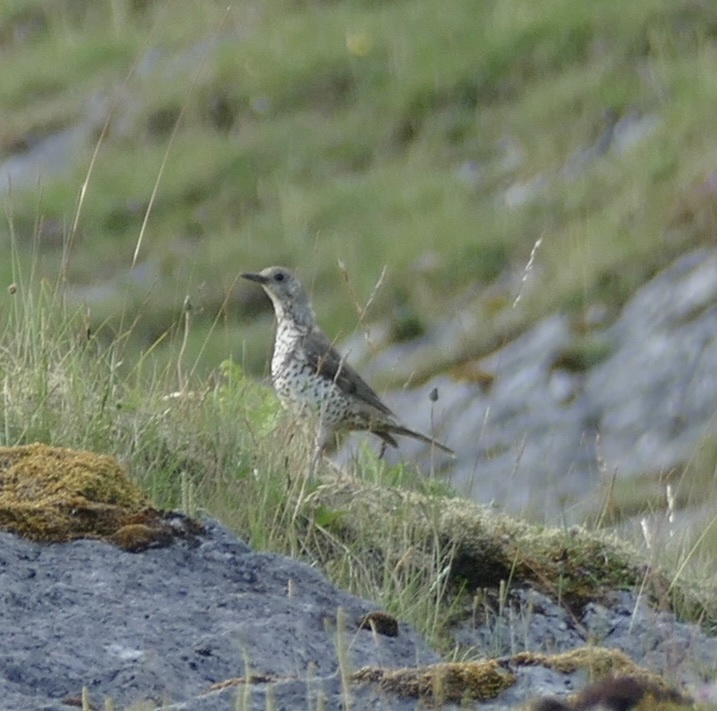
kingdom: Animalia
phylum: Chordata
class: Aves
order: Passeriformes
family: Turdidae
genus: Turdus
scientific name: Turdus viscivorus
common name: Mistle thrush
